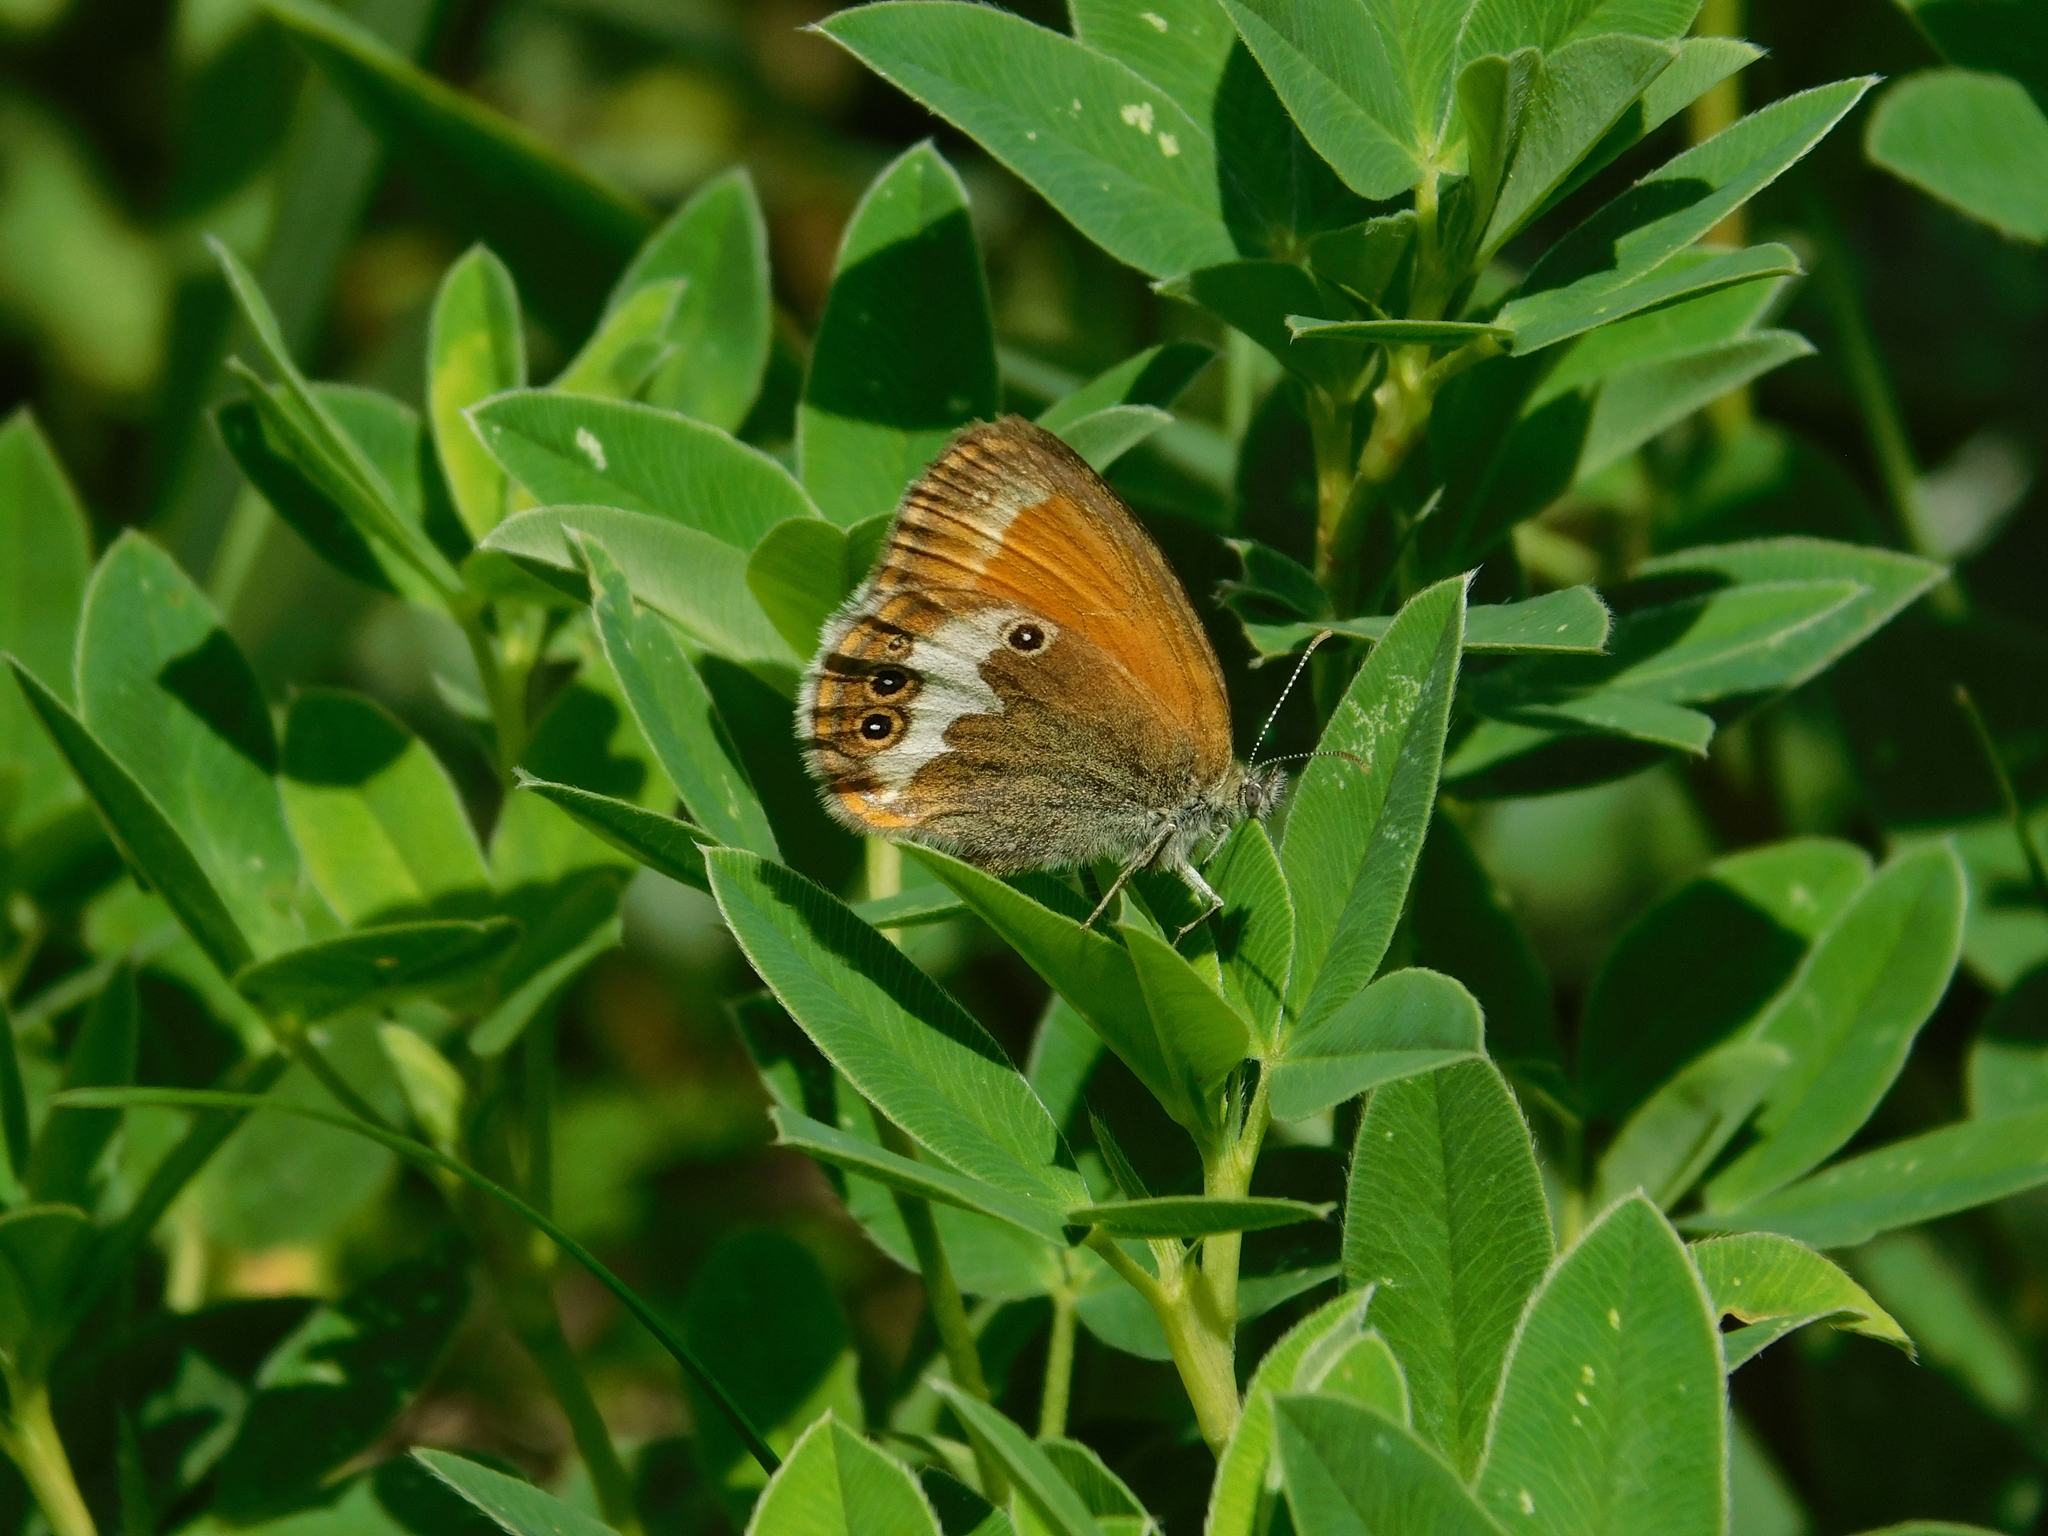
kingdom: Animalia
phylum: Arthropoda
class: Insecta
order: Lepidoptera
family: Nymphalidae
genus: Coenonympha
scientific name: Coenonympha arcania
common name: Pearly heath
